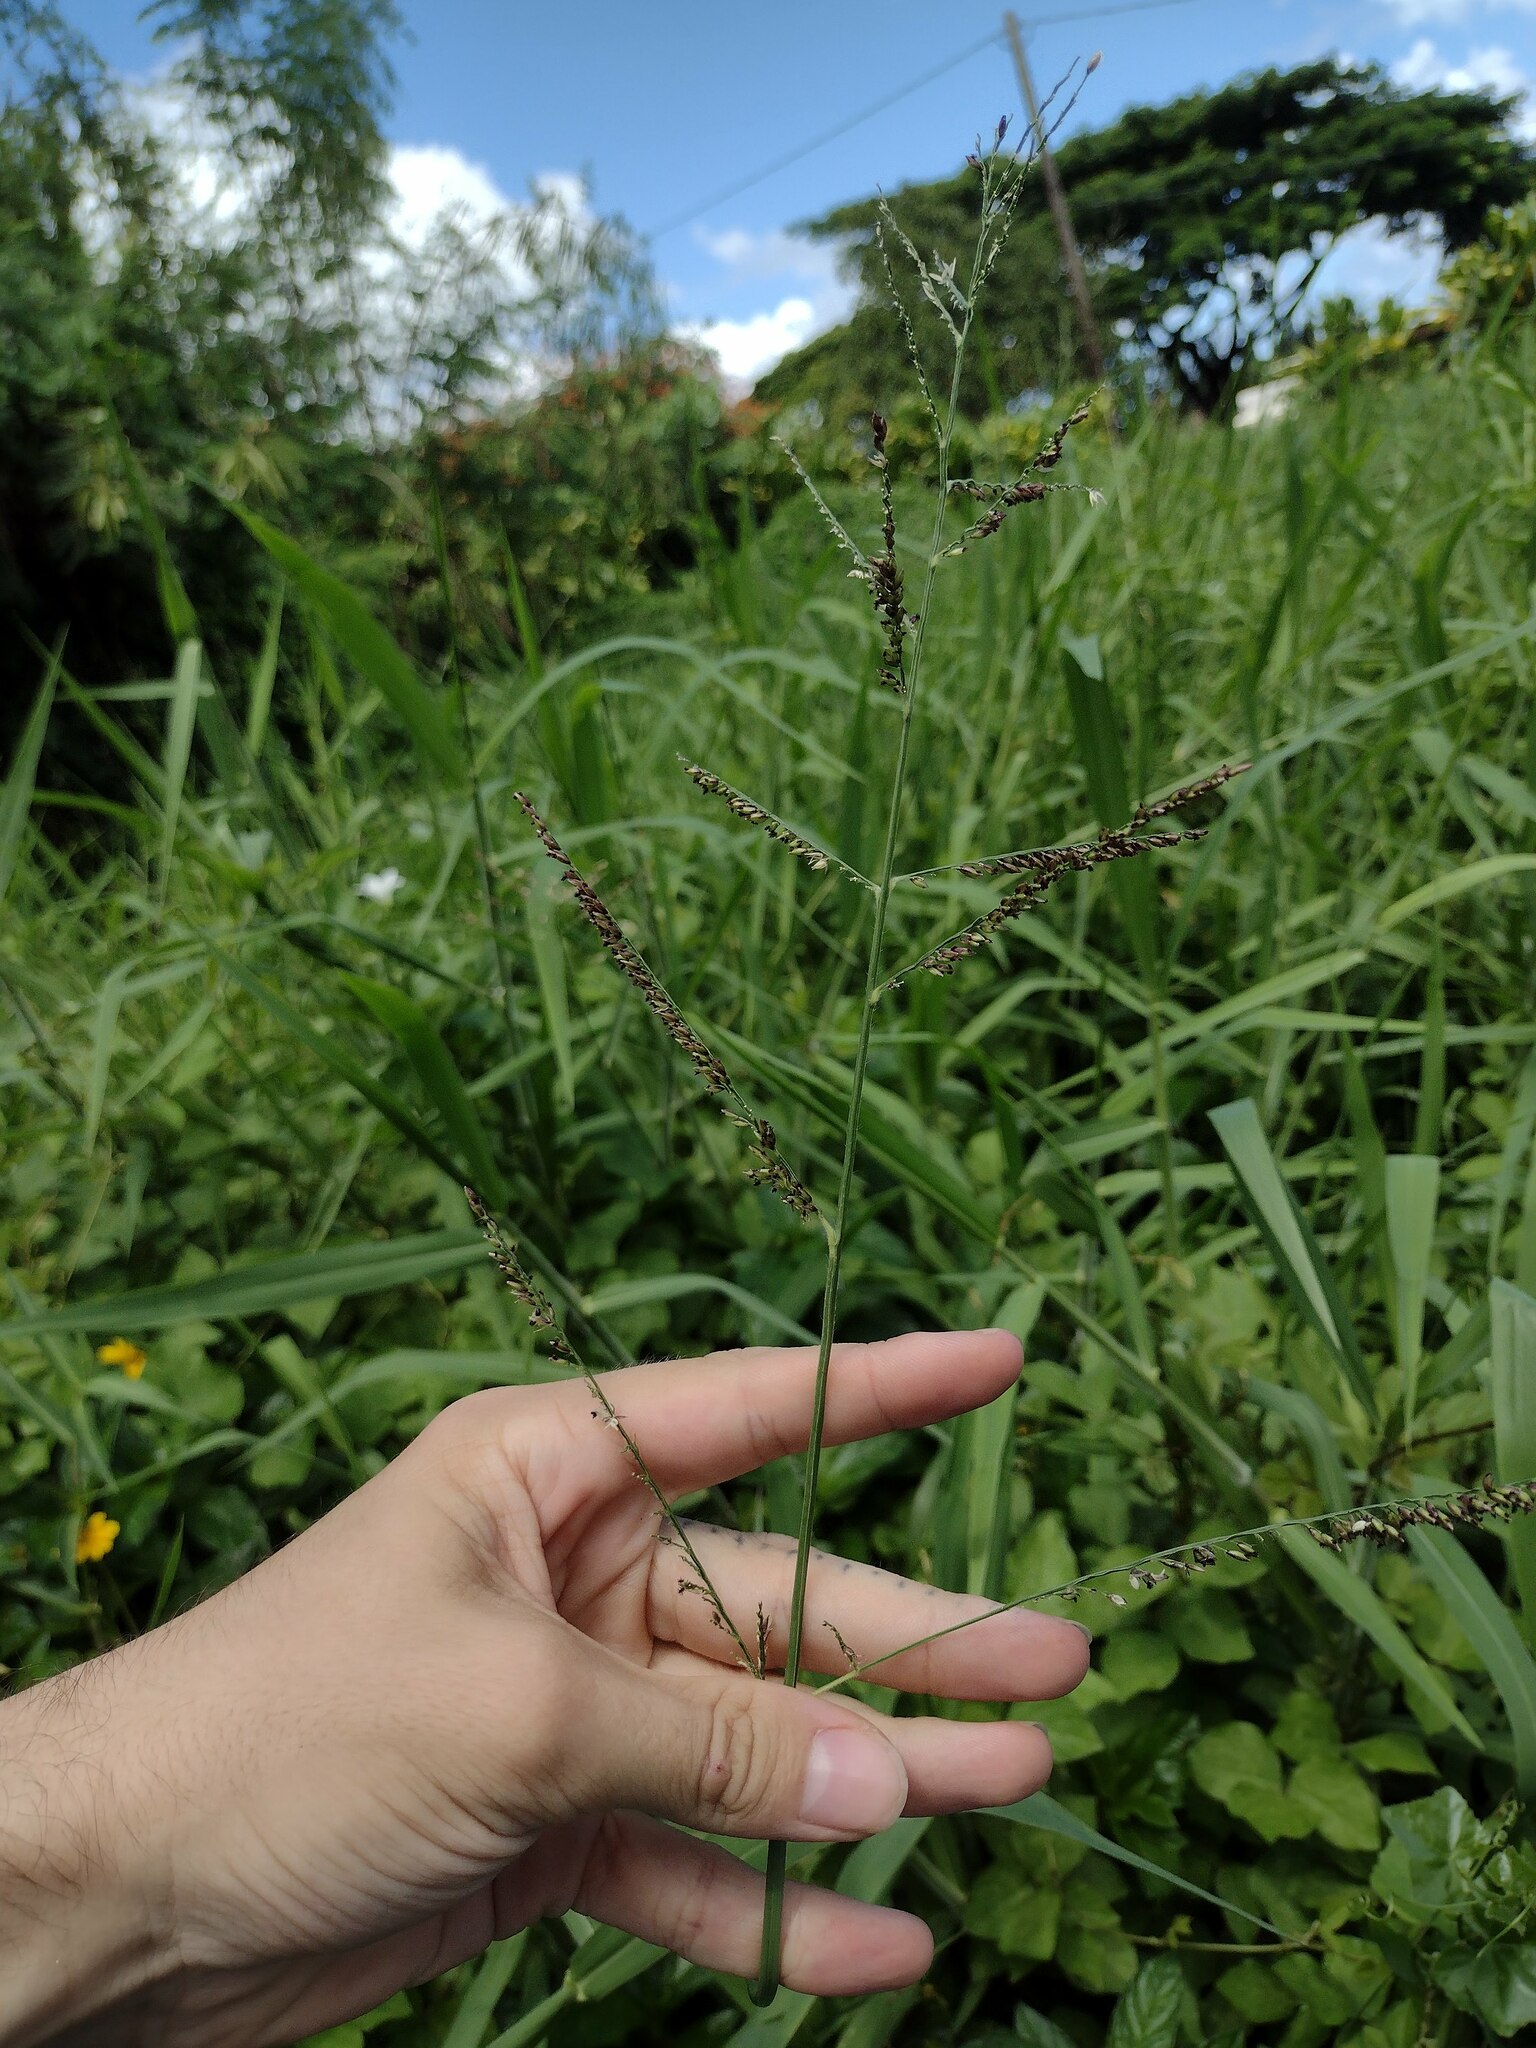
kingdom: Plantae
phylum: Tracheophyta
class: Liliopsida
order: Poales
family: Poaceae
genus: Urochloa
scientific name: Urochloa mutica
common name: Para grass
